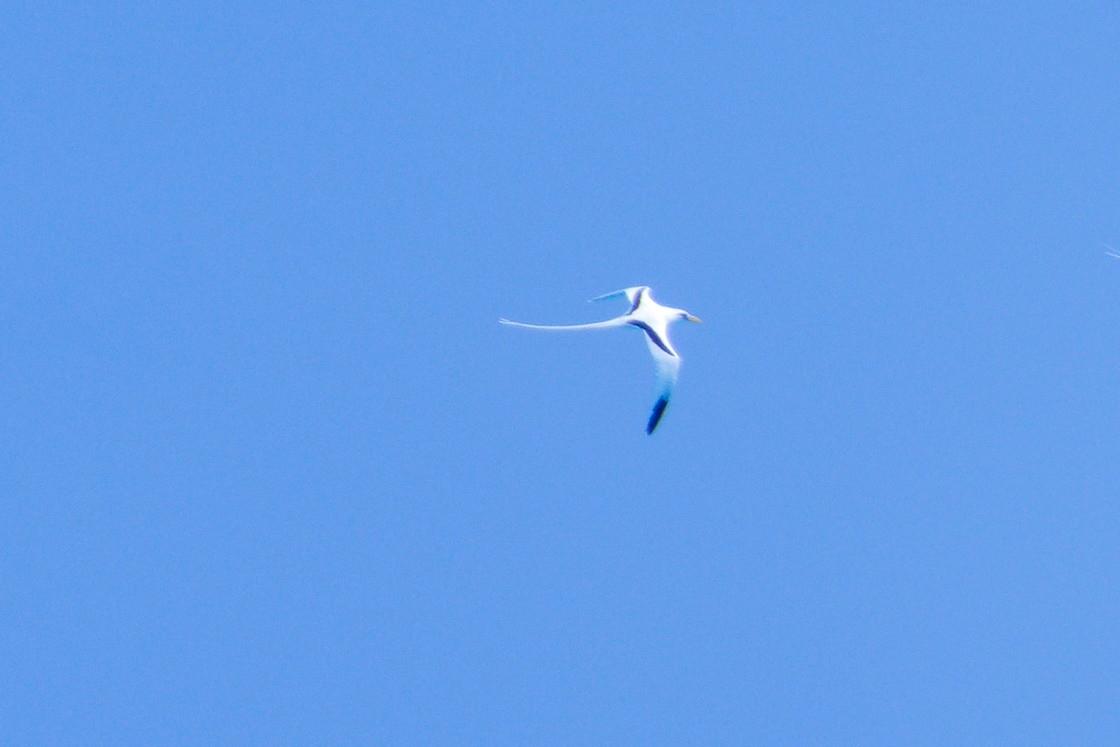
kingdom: Animalia
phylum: Chordata
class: Aves
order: Phaethontiformes
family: Phaethontidae
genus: Phaethon
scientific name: Phaethon lepturus
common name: White-tailed tropicbird
